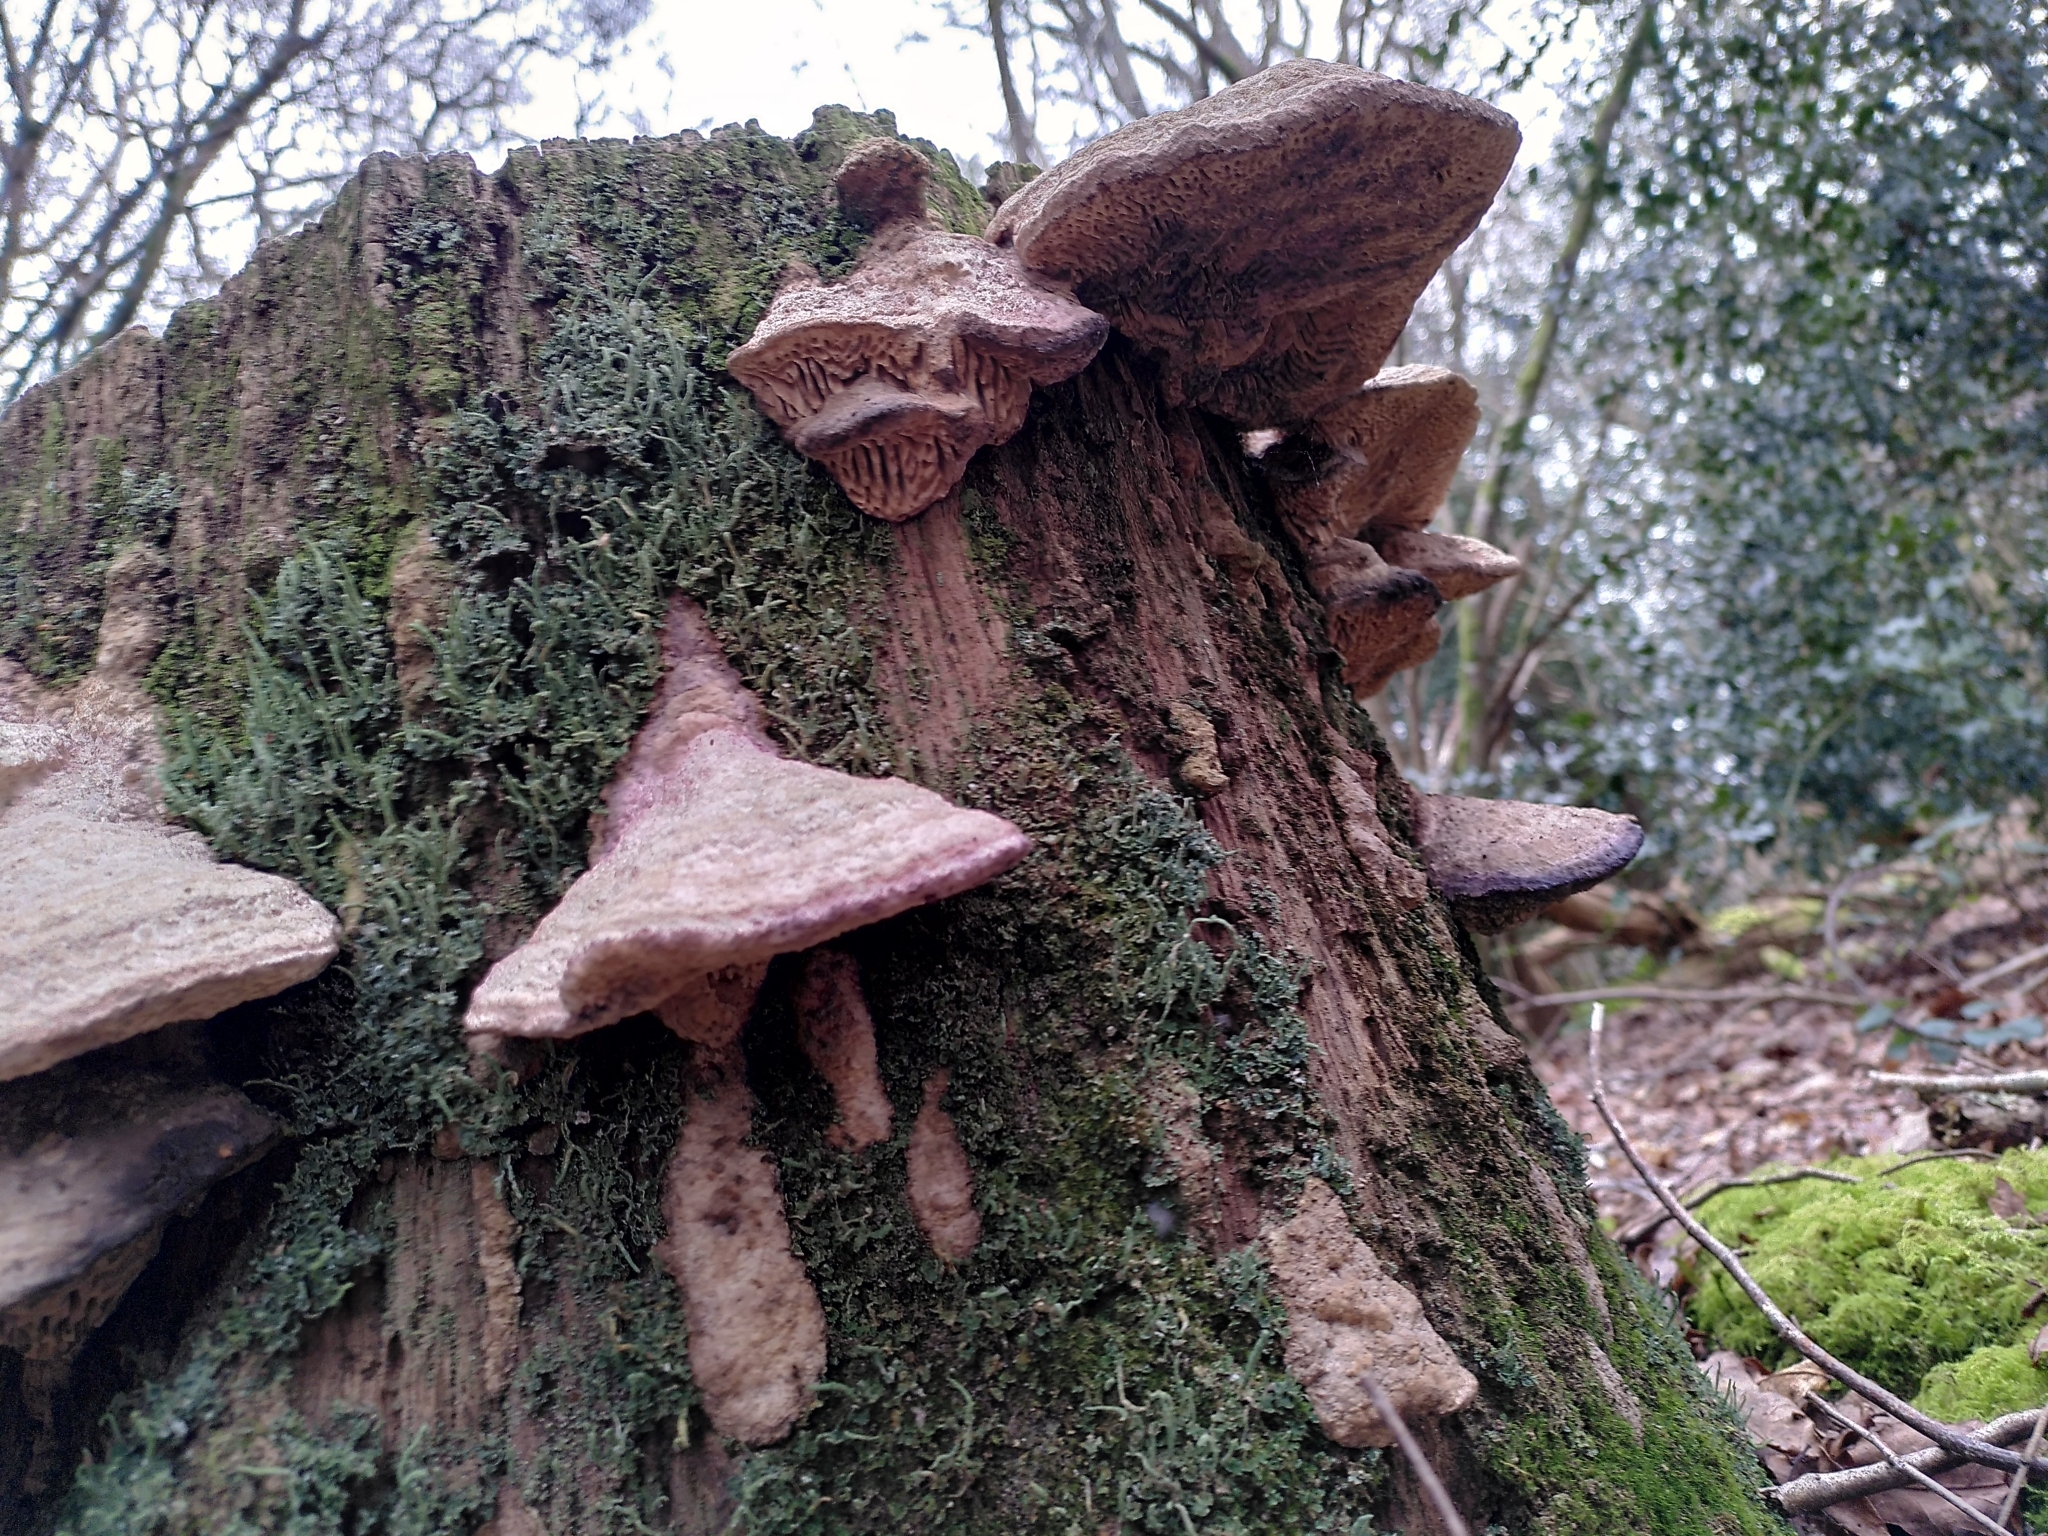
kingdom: Fungi
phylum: Basidiomycota
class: Agaricomycetes
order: Polyporales
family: Fomitopsidaceae
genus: Fomitopsis
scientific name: Fomitopsis
